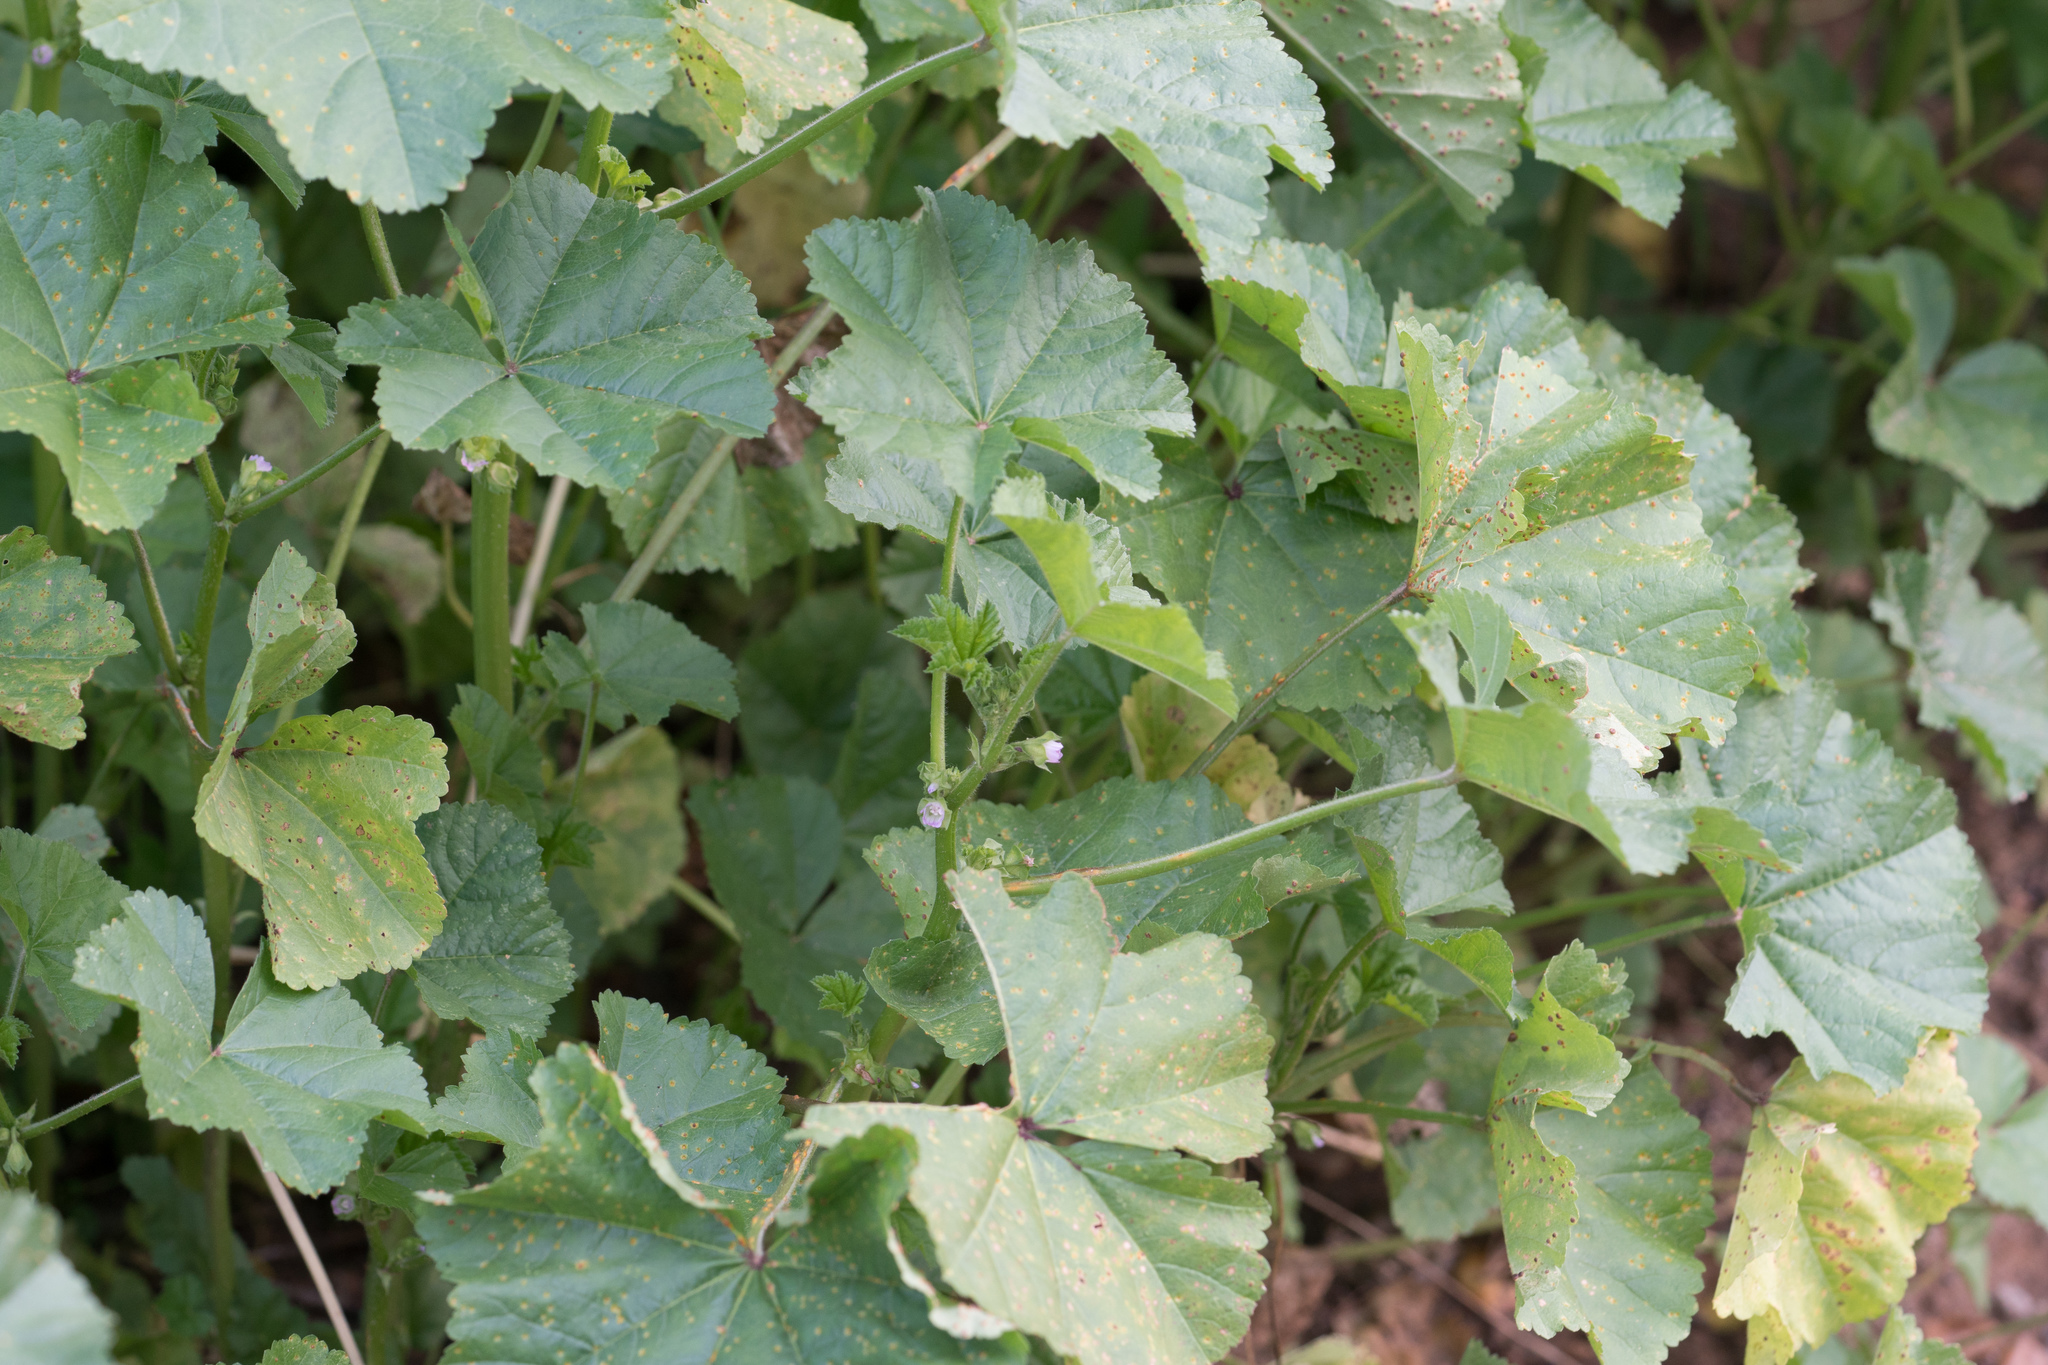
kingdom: Plantae
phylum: Tracheophyta
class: Magnoliopsida
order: Malvales
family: Malvaceae
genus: Malva
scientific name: Malva parviflora
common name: Least mallow
